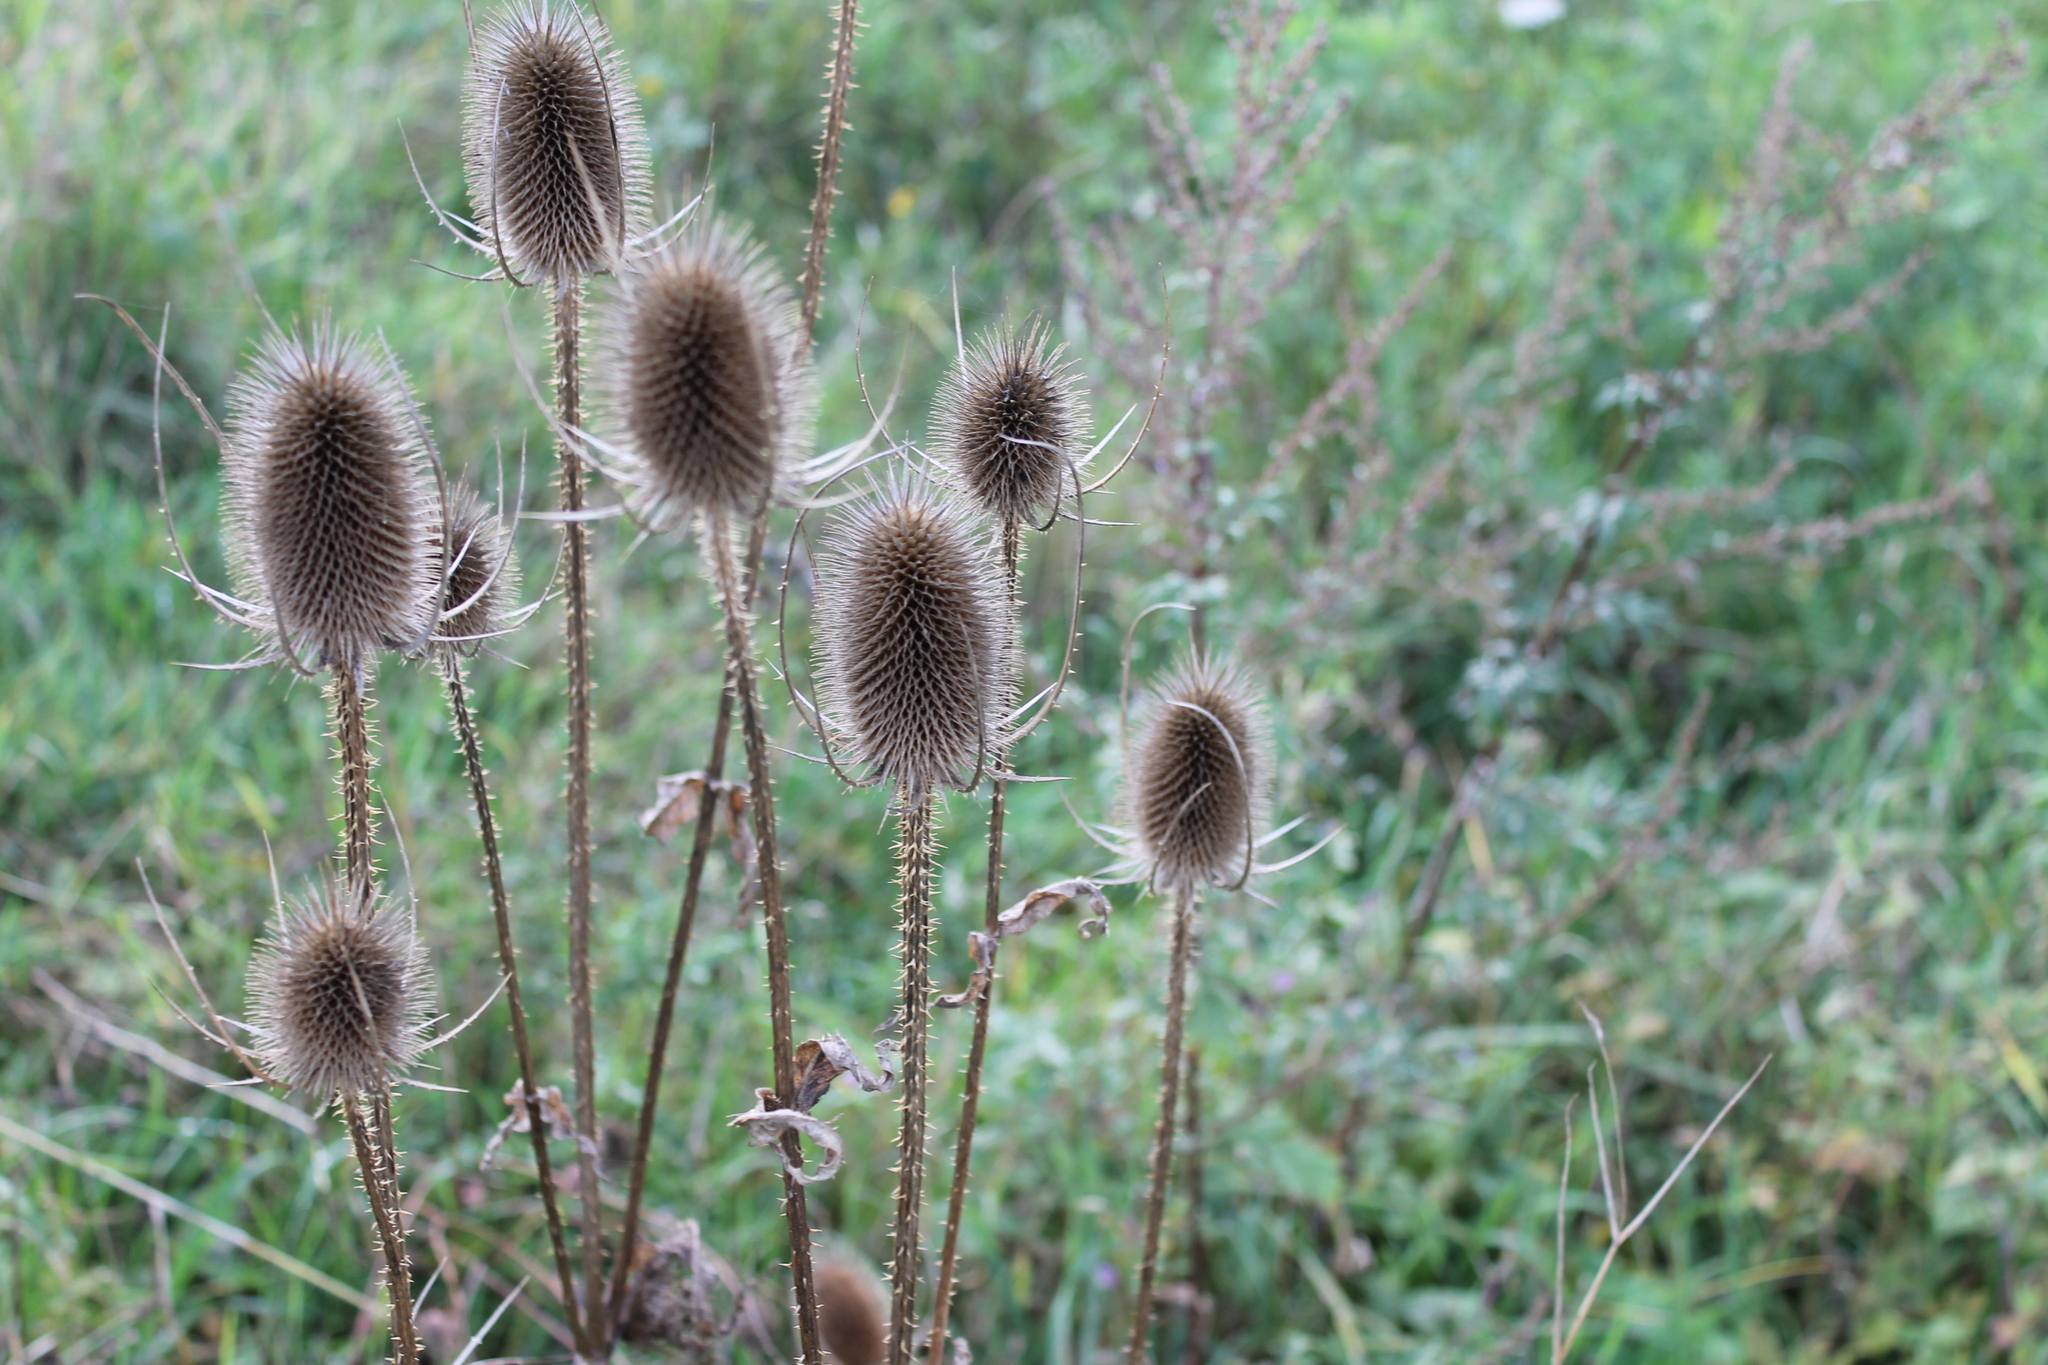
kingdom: Plantae
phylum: Tracheophyta
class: Magnoliopsida
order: Dipsacales
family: Caprifoliaceae
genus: Dipsacus
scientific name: Dipsacus fullonum
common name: Teasel
